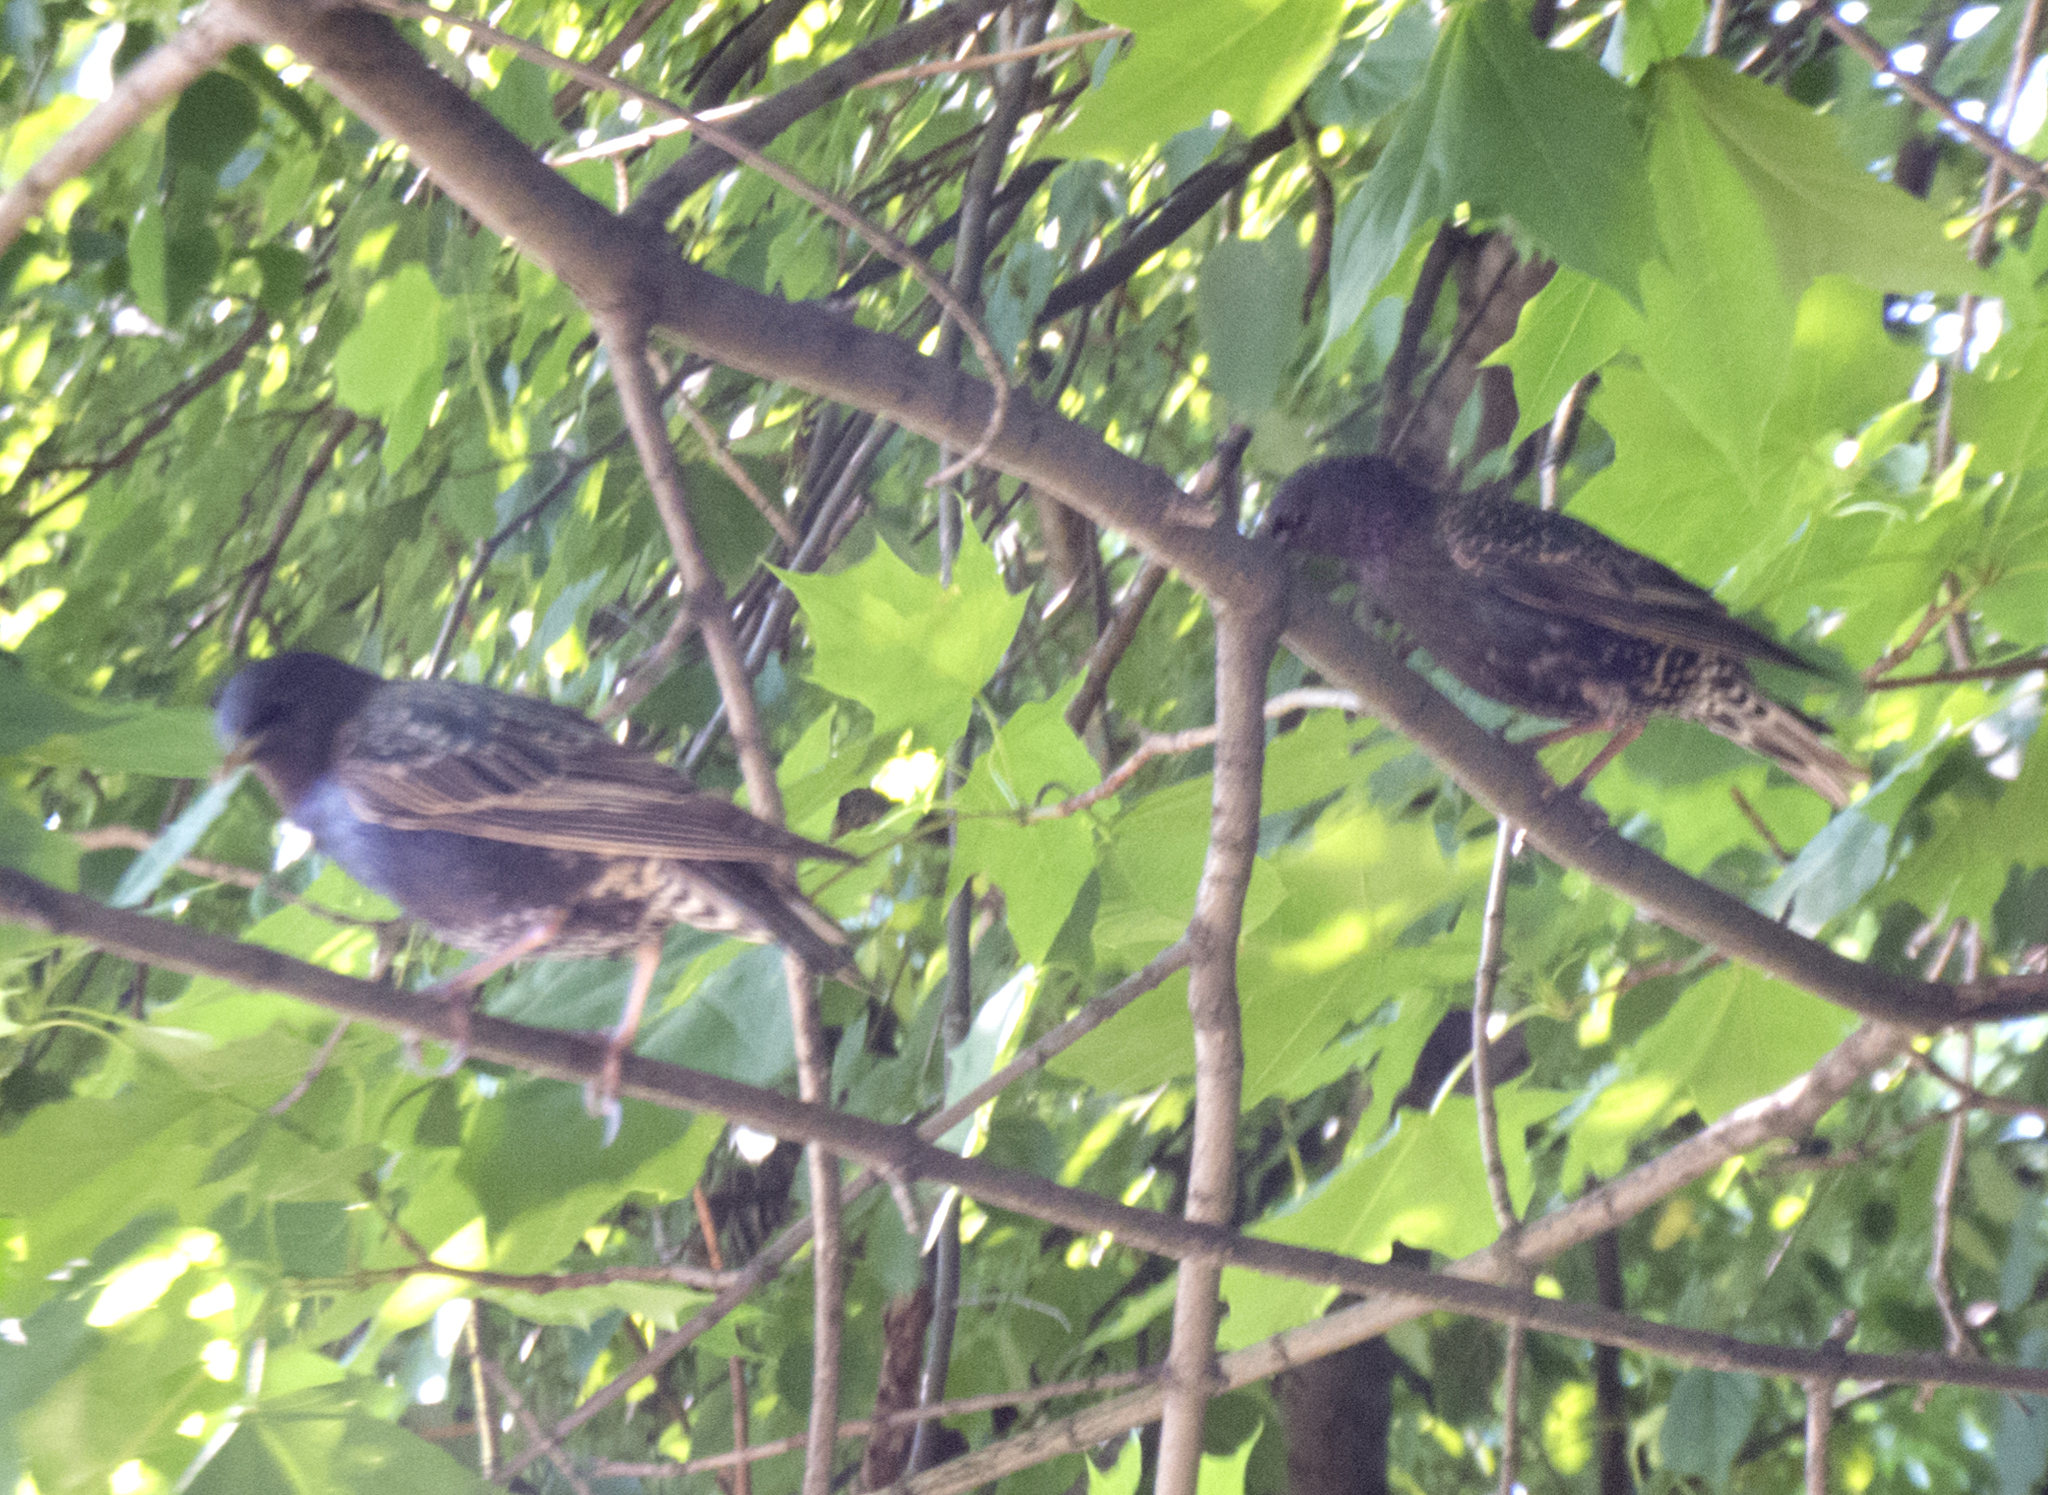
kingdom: Animalia
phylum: Chordata
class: Aves
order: Passeriformes
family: Sturnidae
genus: Sturnus
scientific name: Sturnus vulgaris
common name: Common starling
